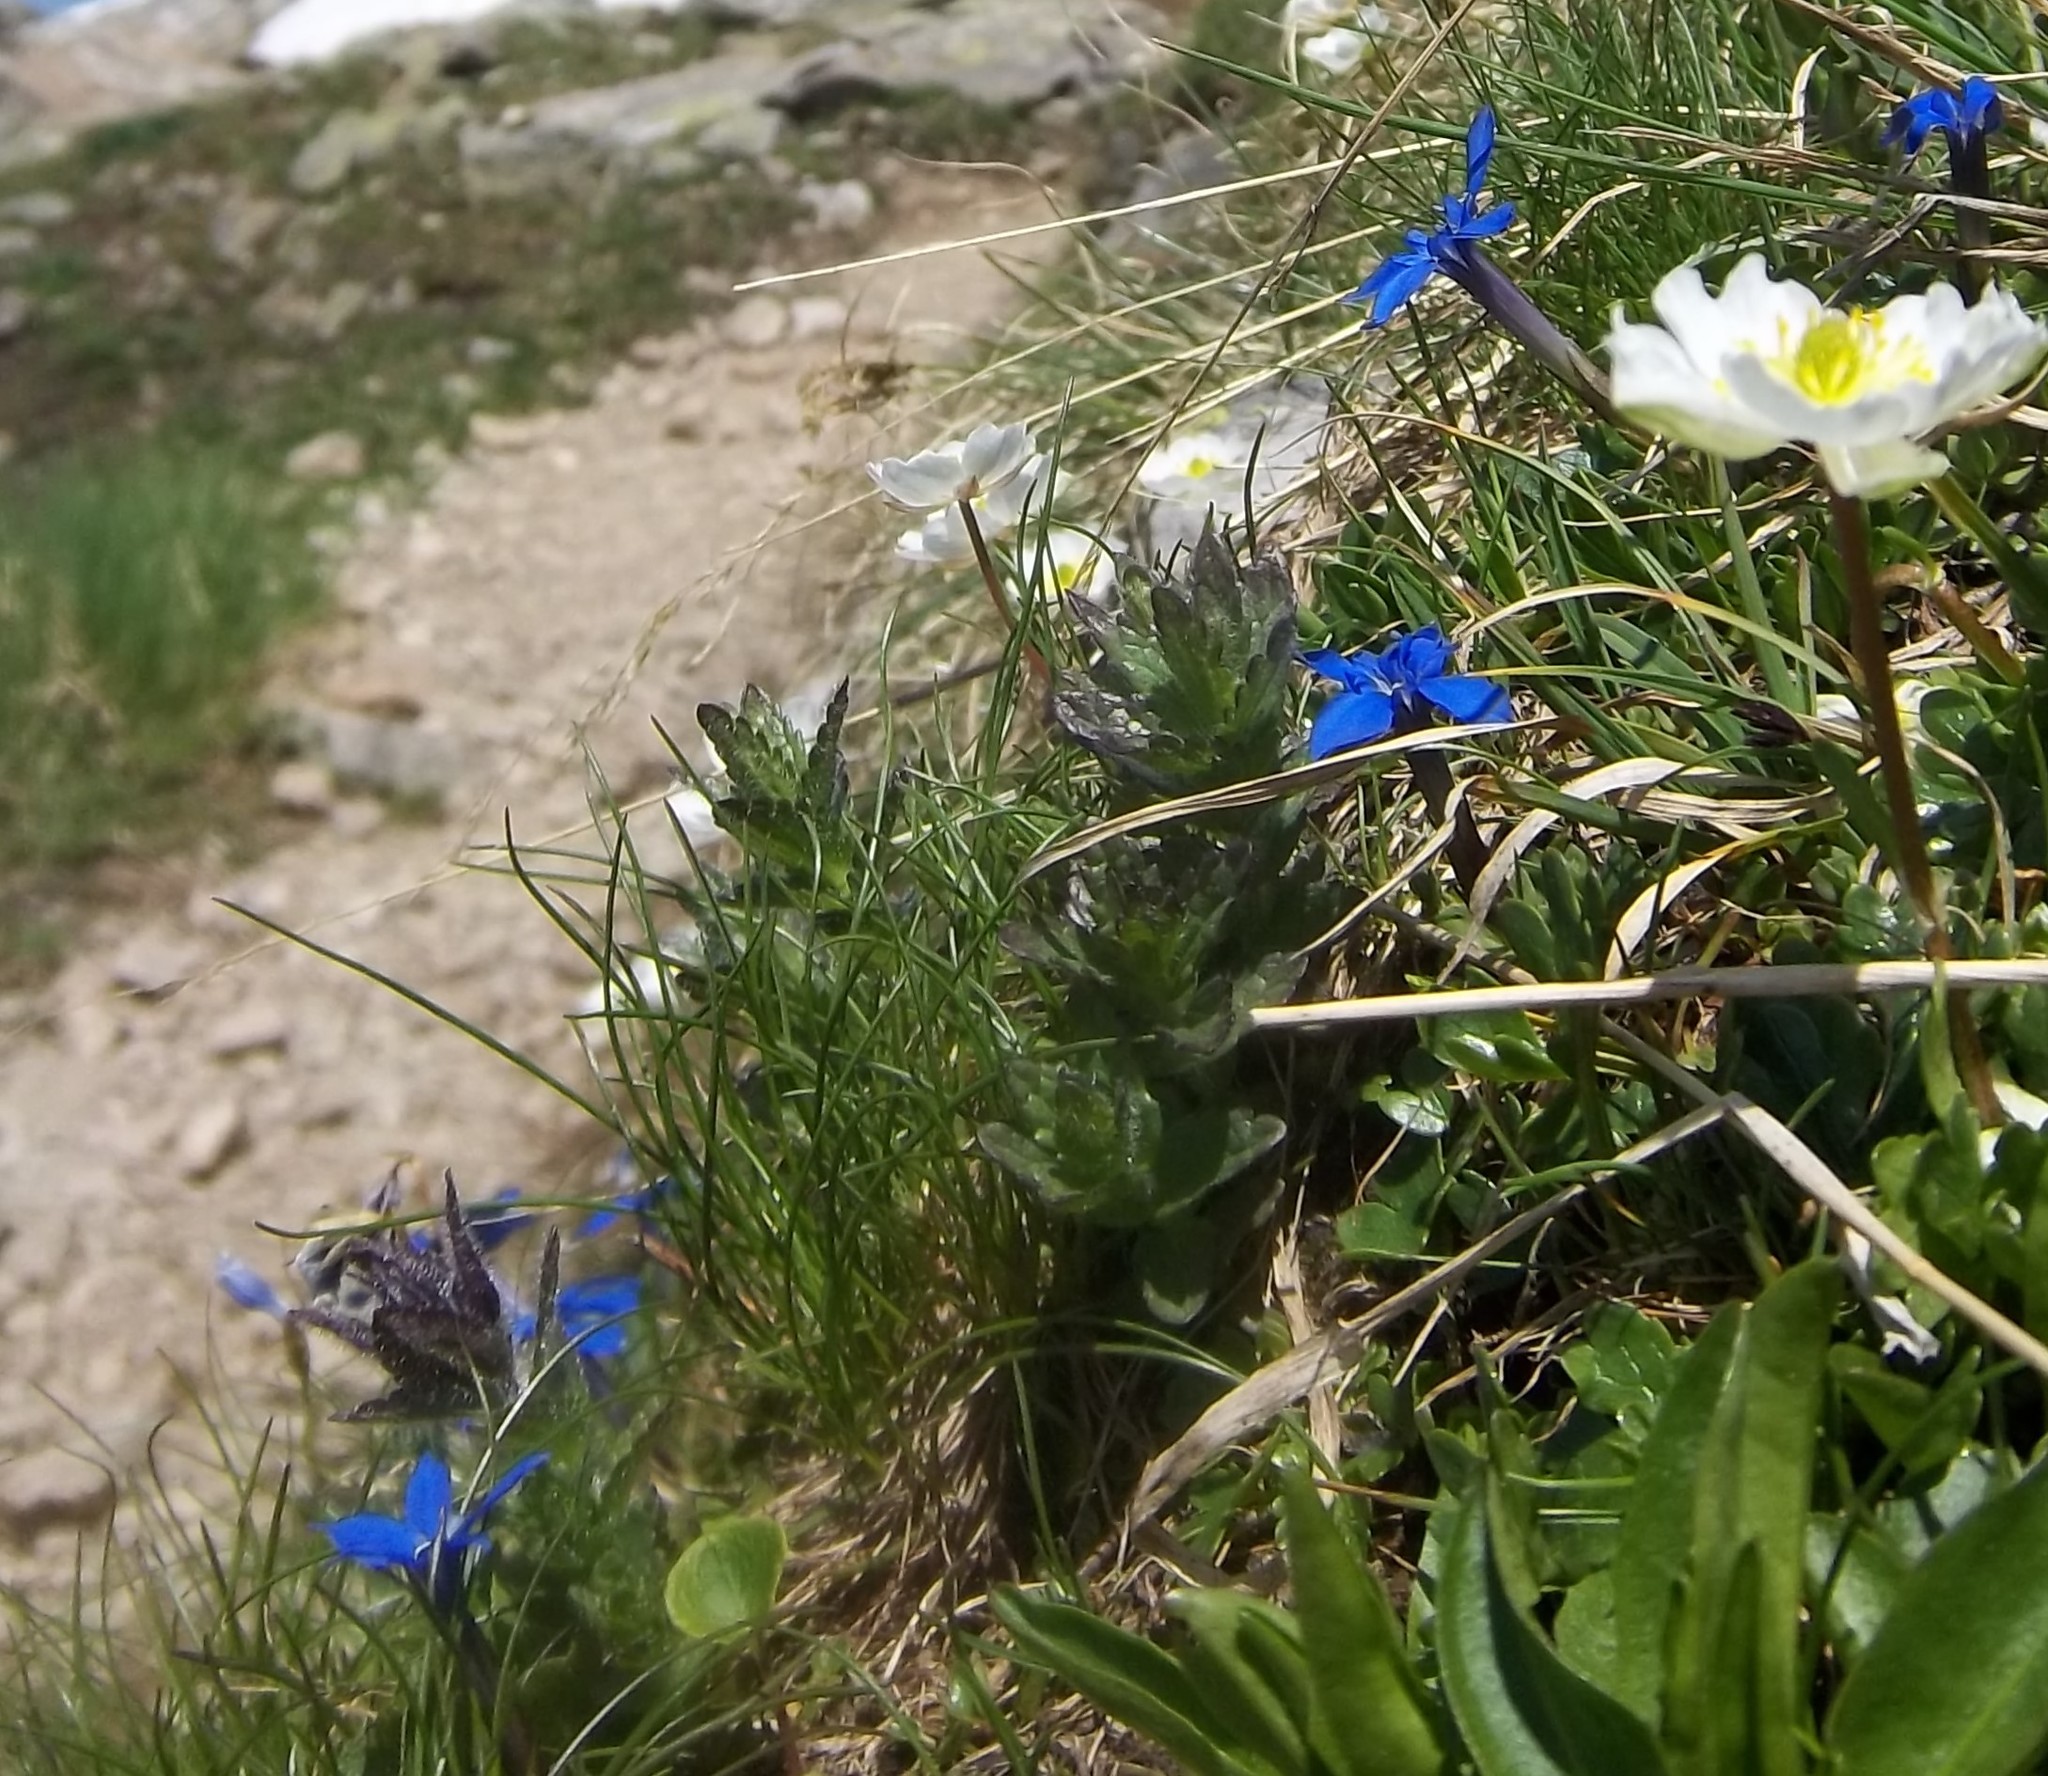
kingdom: Plantae
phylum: Tracheophyta
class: Magnoliopsida
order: Gentianales
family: Gentianaceae
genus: Gentiana
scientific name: Gentiana verna
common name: Spring gentian
